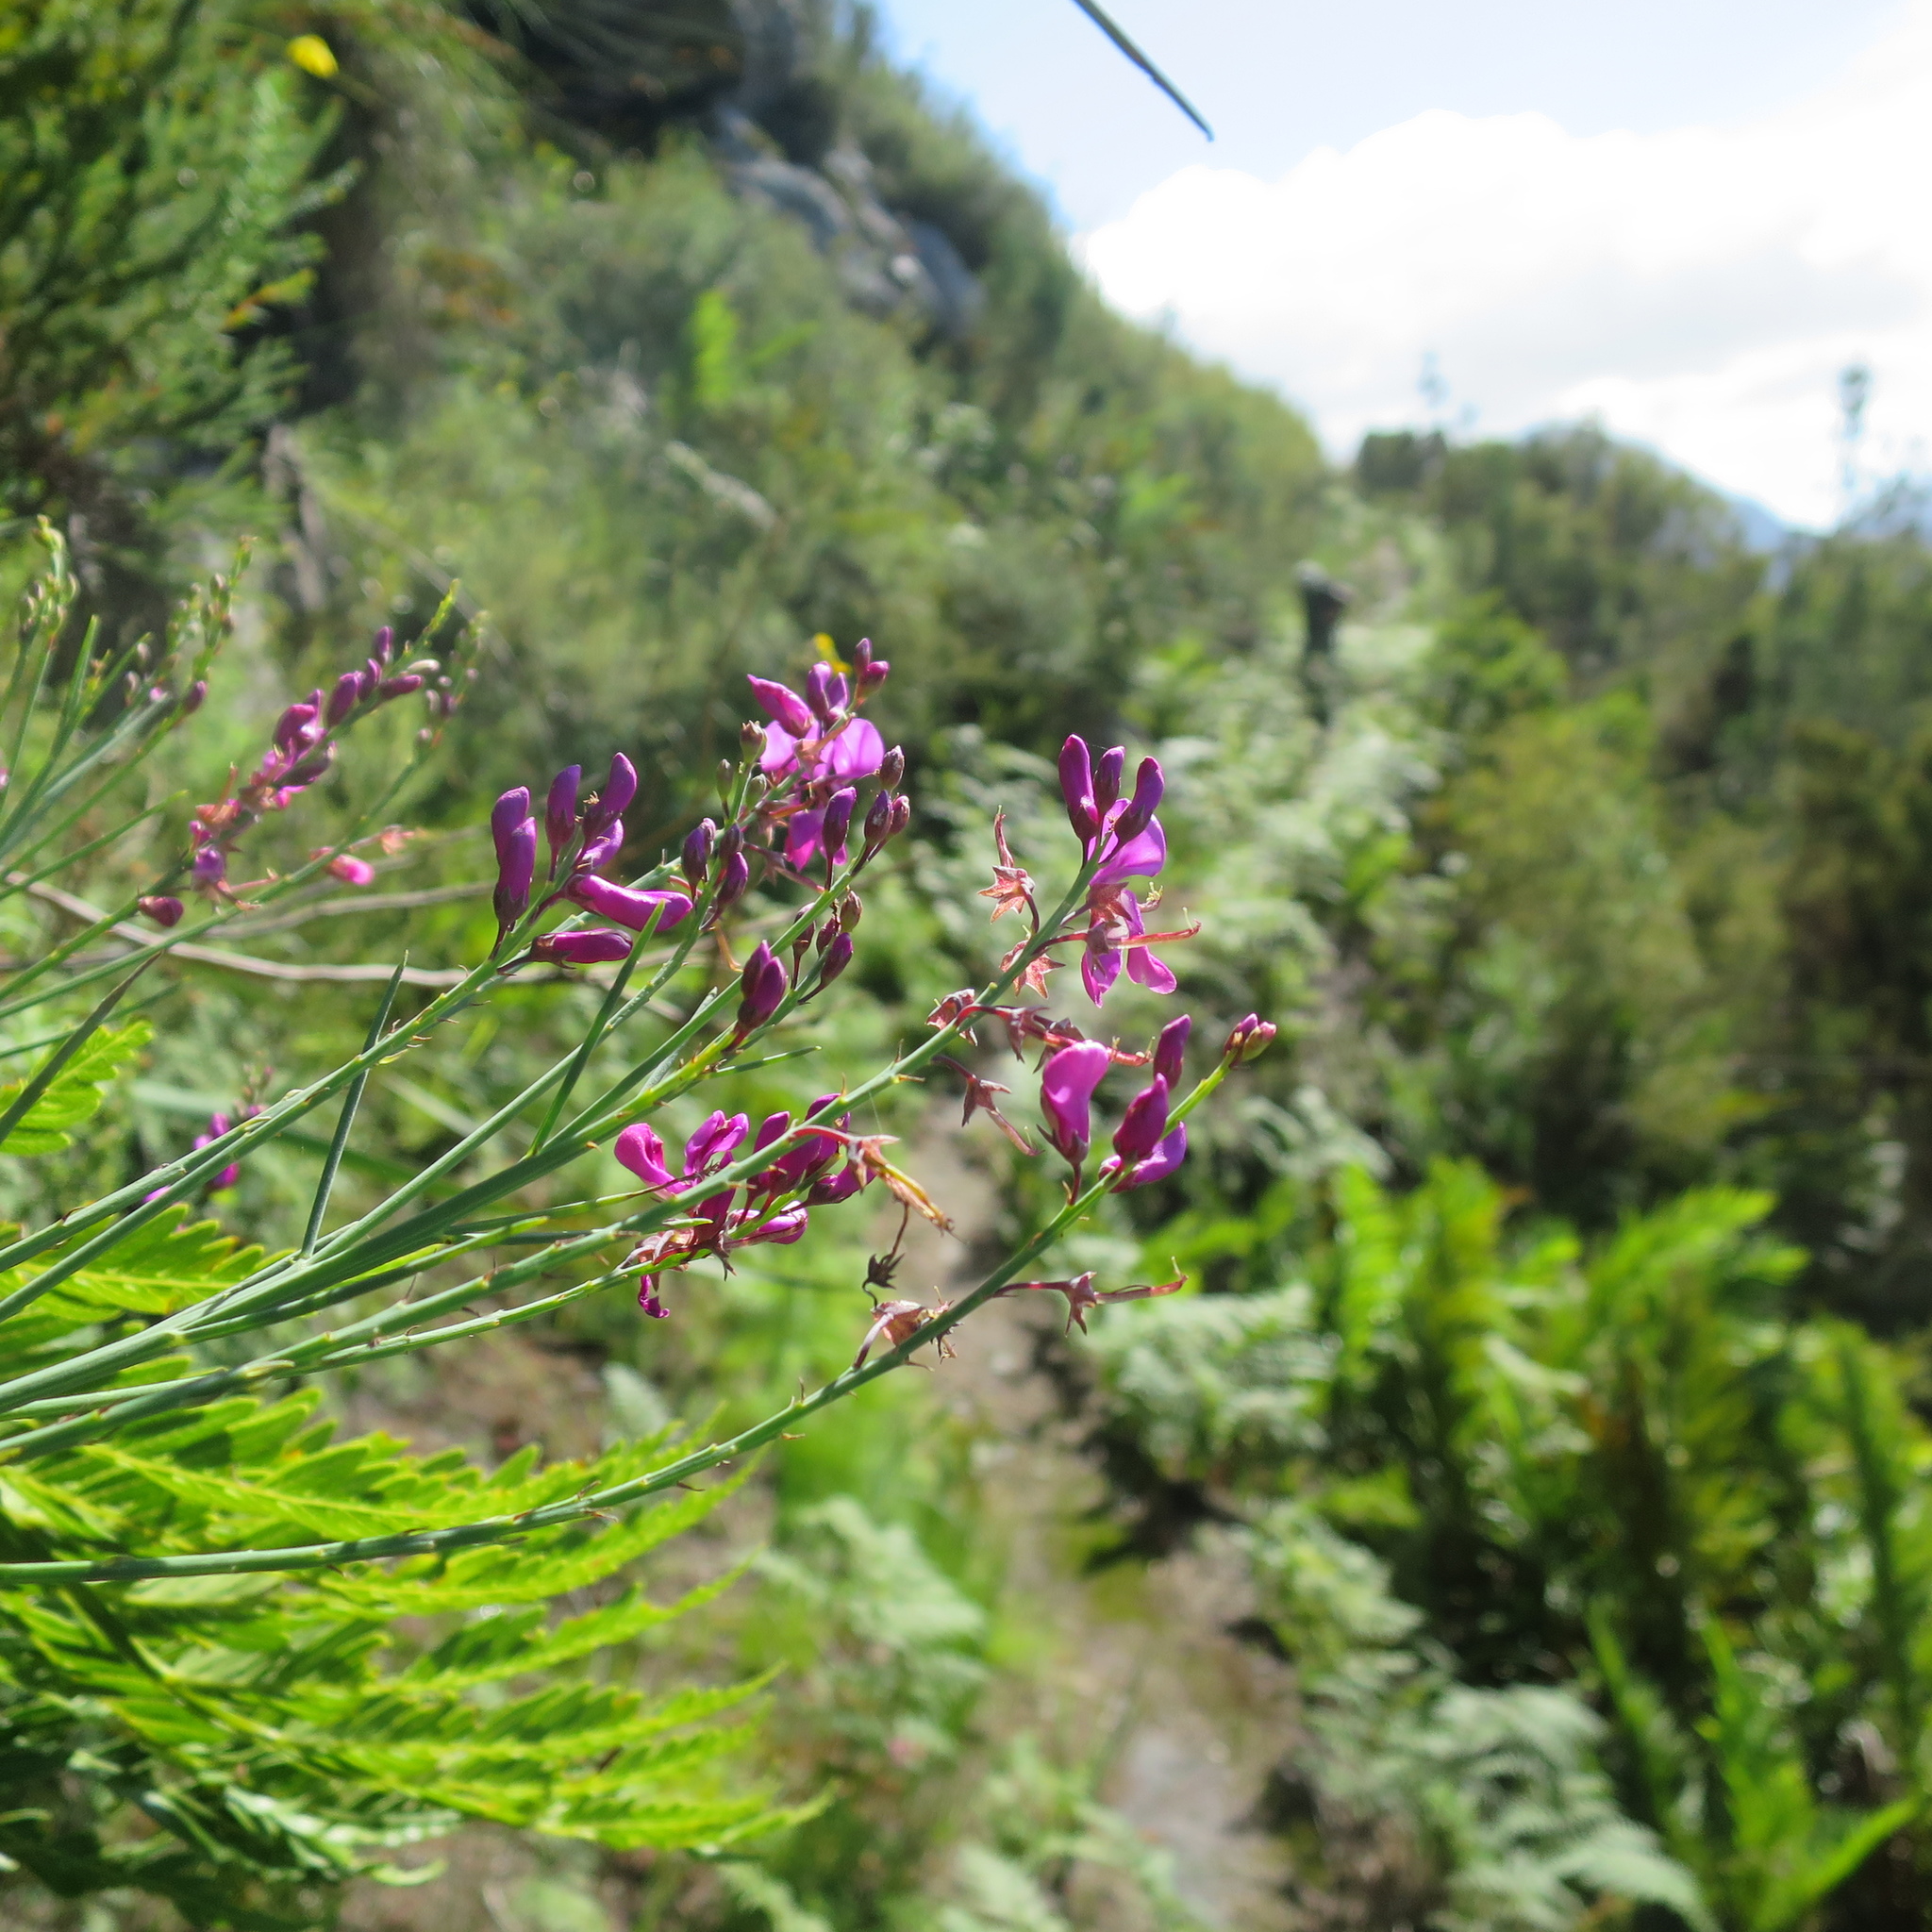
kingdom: Plantae
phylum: Tracheophyta
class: Magnoliopsida
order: Fabales
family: Fabaceae
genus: Indigofera
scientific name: Indigofera filifolia
